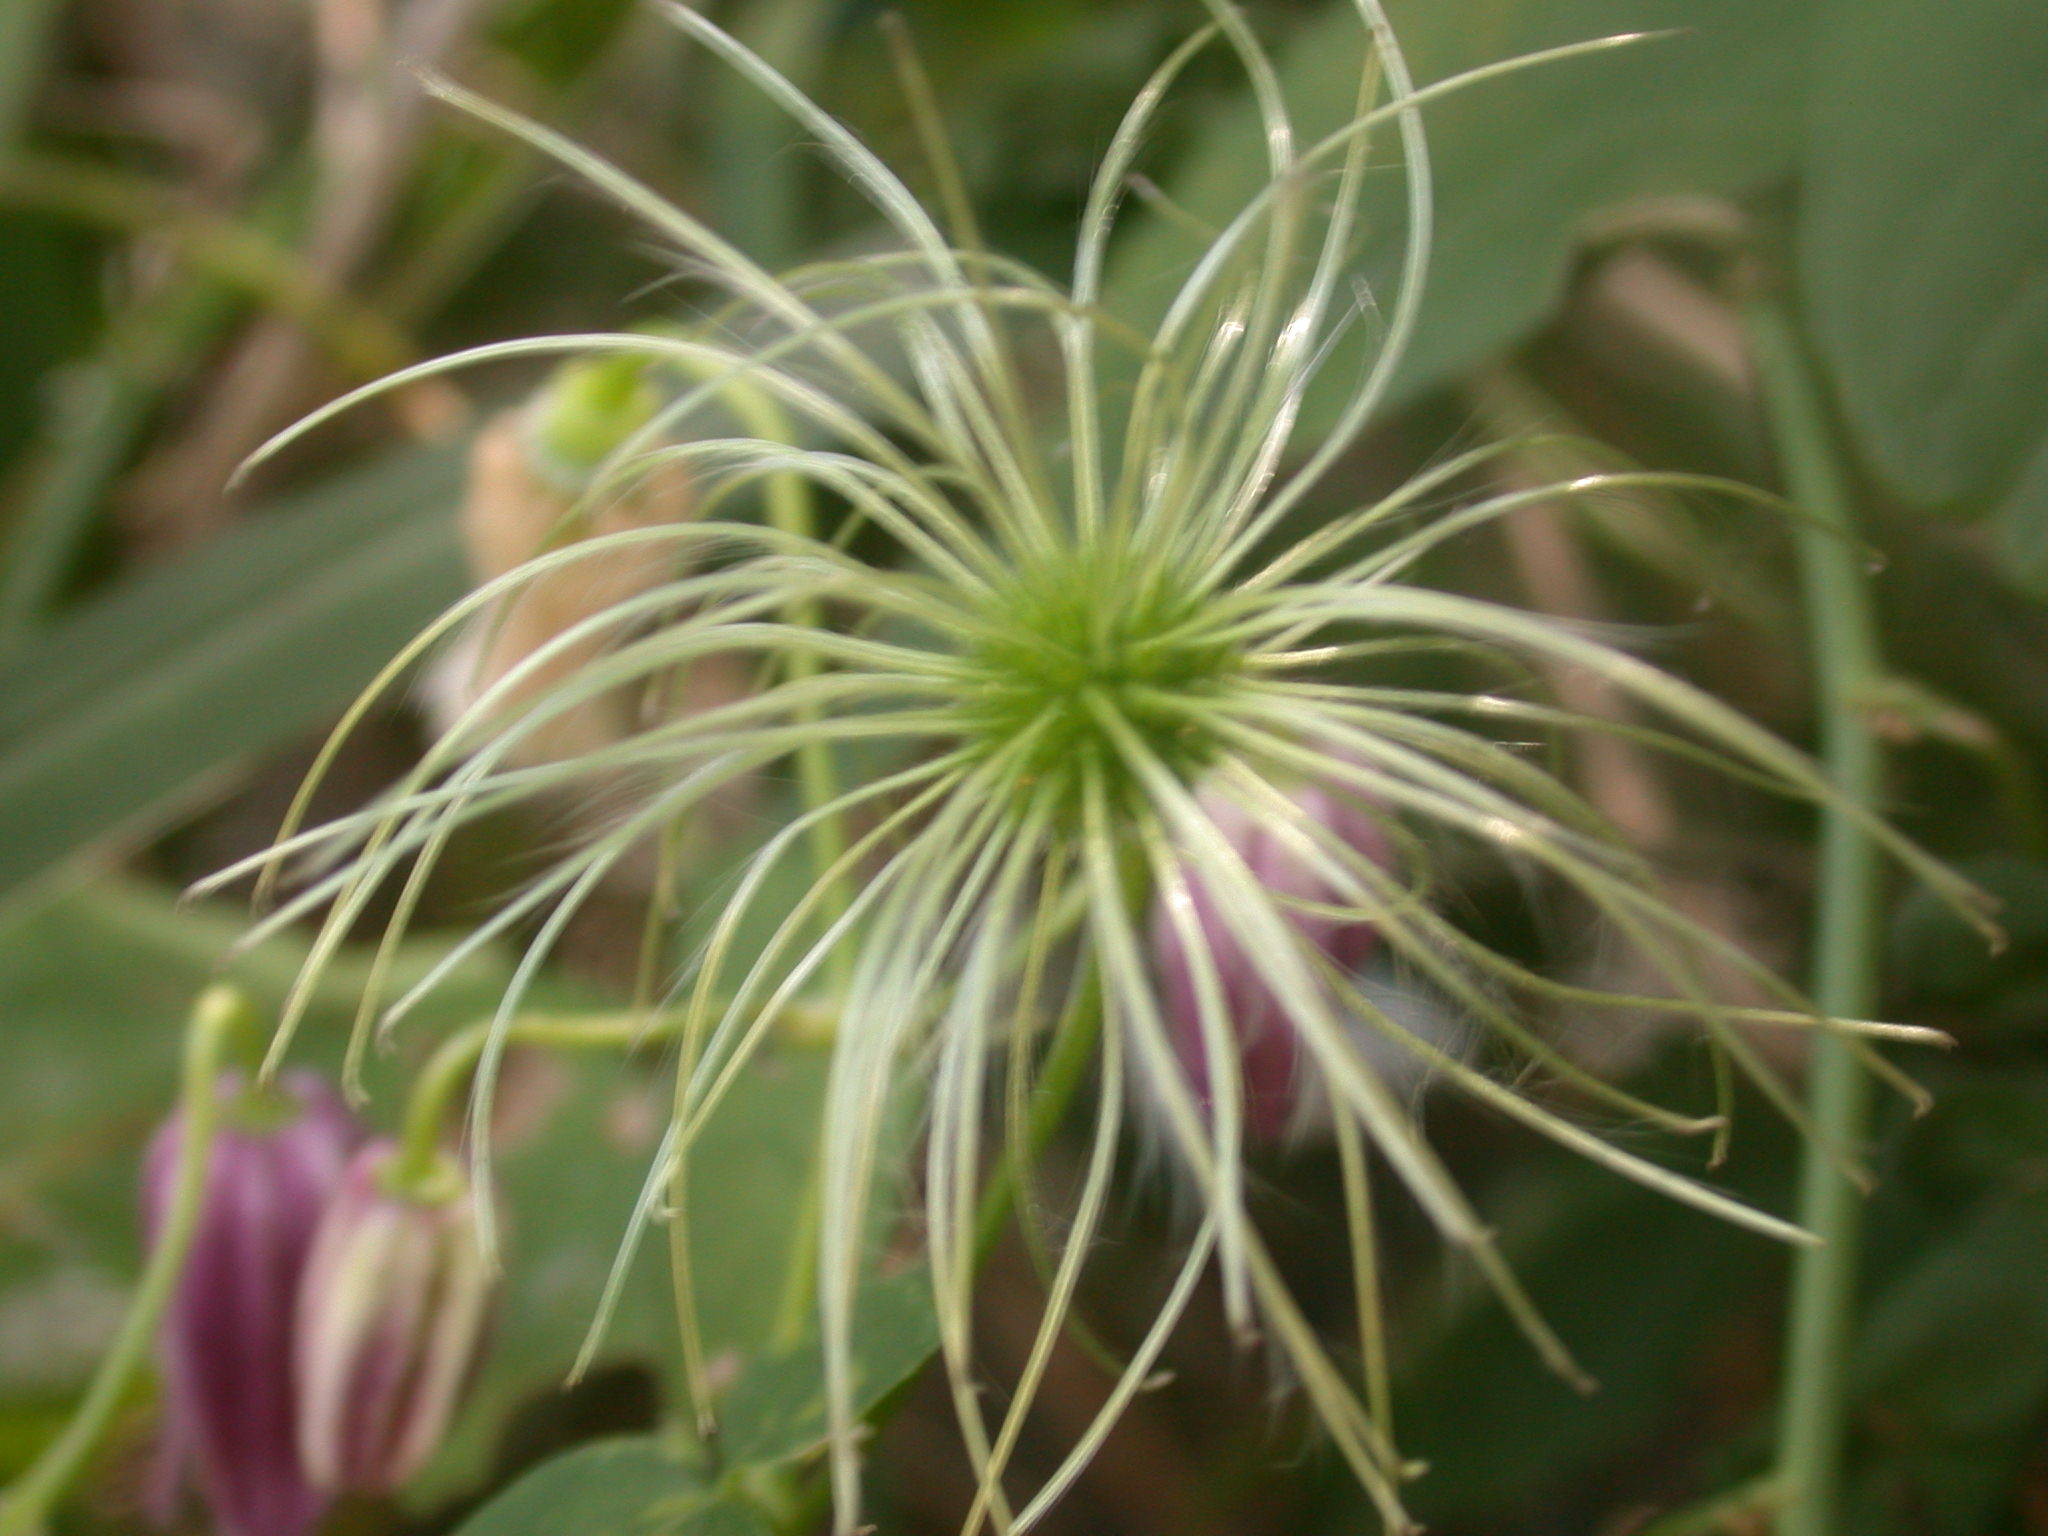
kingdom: Plantae
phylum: Tracheophyta
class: Magnoliopsida
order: Ranunculales
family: Ranunculaceae
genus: Clematis
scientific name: Clematis lasiandra
